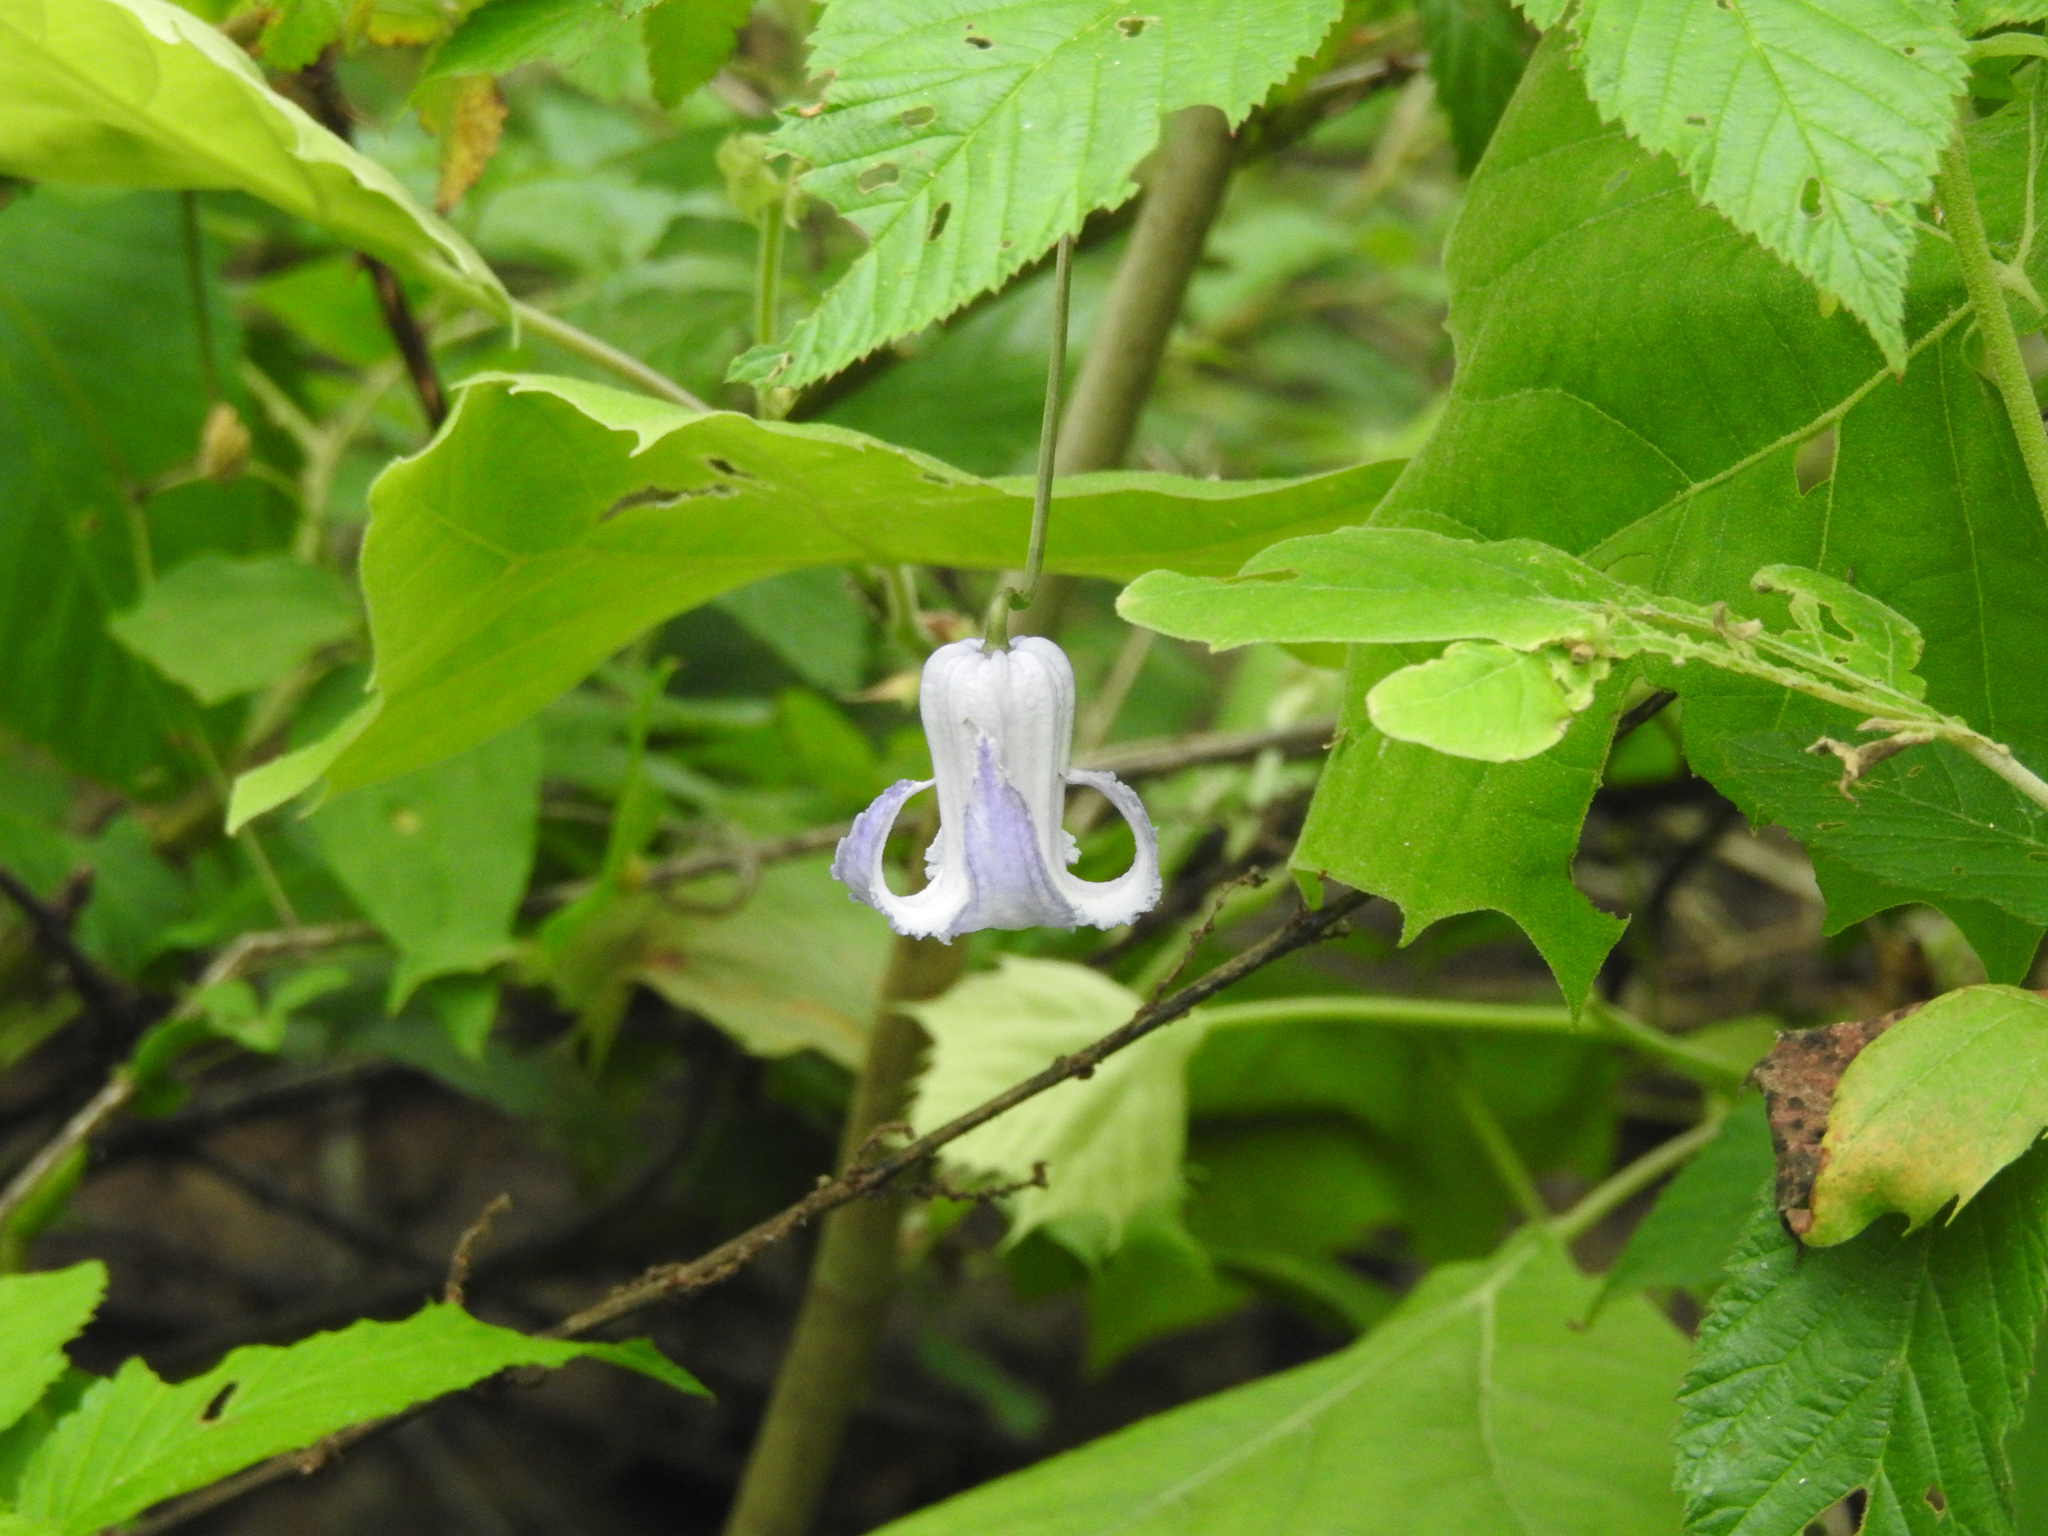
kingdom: Plantae
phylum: Tracheophyta
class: Magnoliopsida
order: Ranunculales
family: Ranunculaceae
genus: Clematis
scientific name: Clematis crispa
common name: Curly clematis
